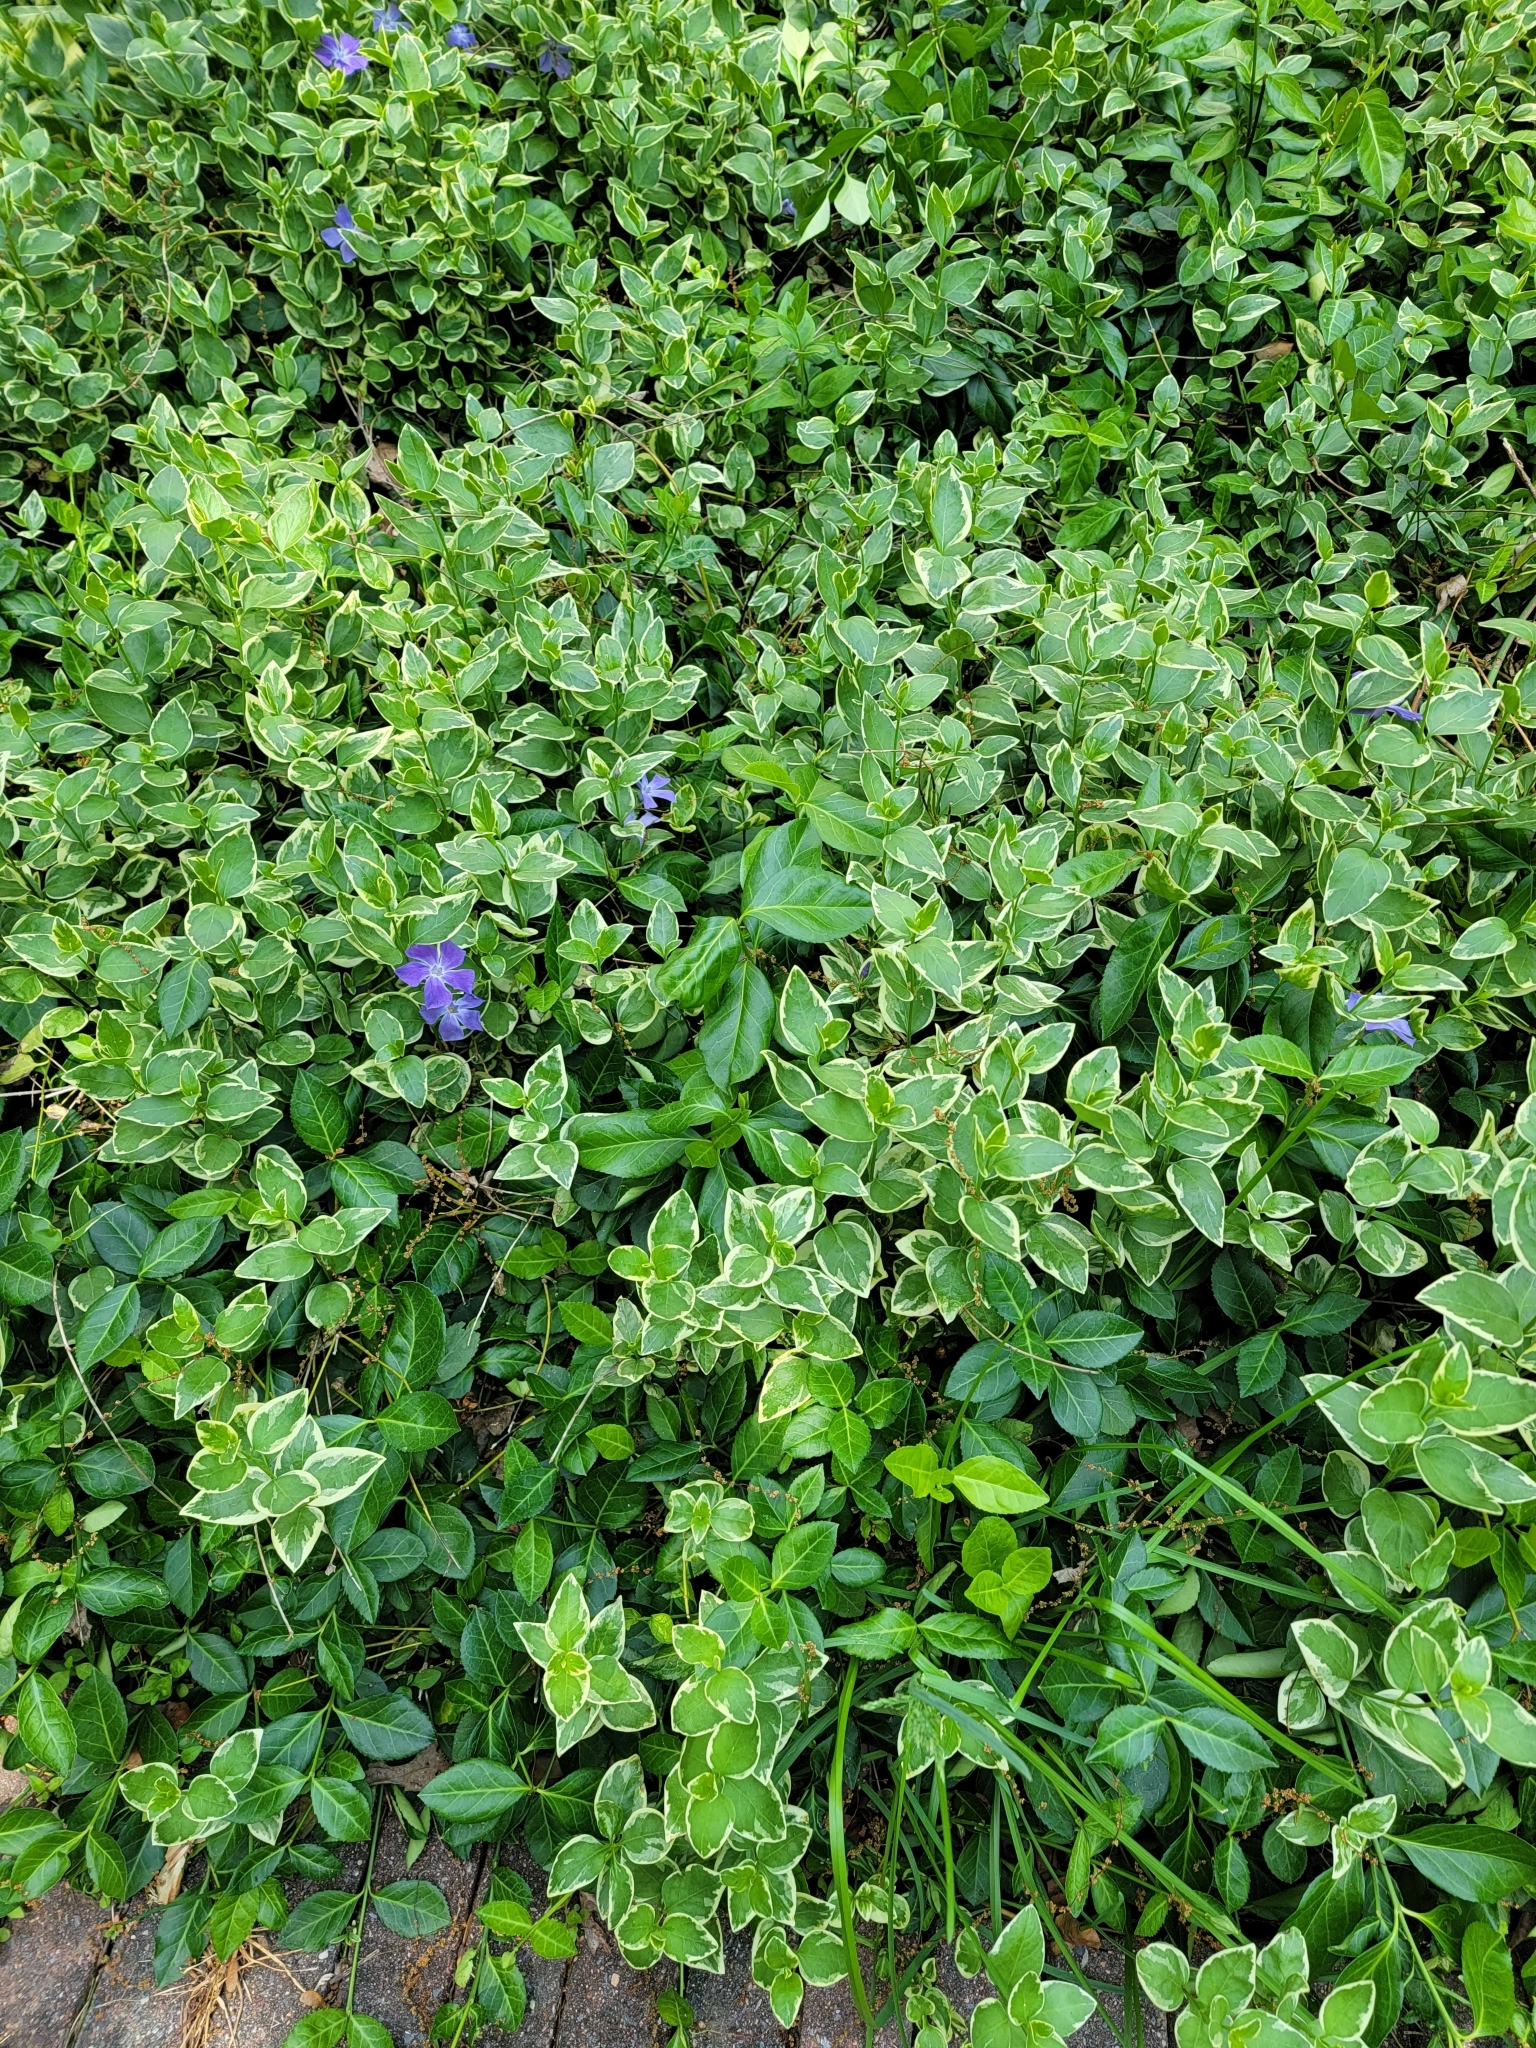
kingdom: Plantae
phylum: Tracheophyta
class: Magnoliopsida
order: Gentianales
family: Apocynaceae
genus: Vinca
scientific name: Vinca major
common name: Greater periwinkle
